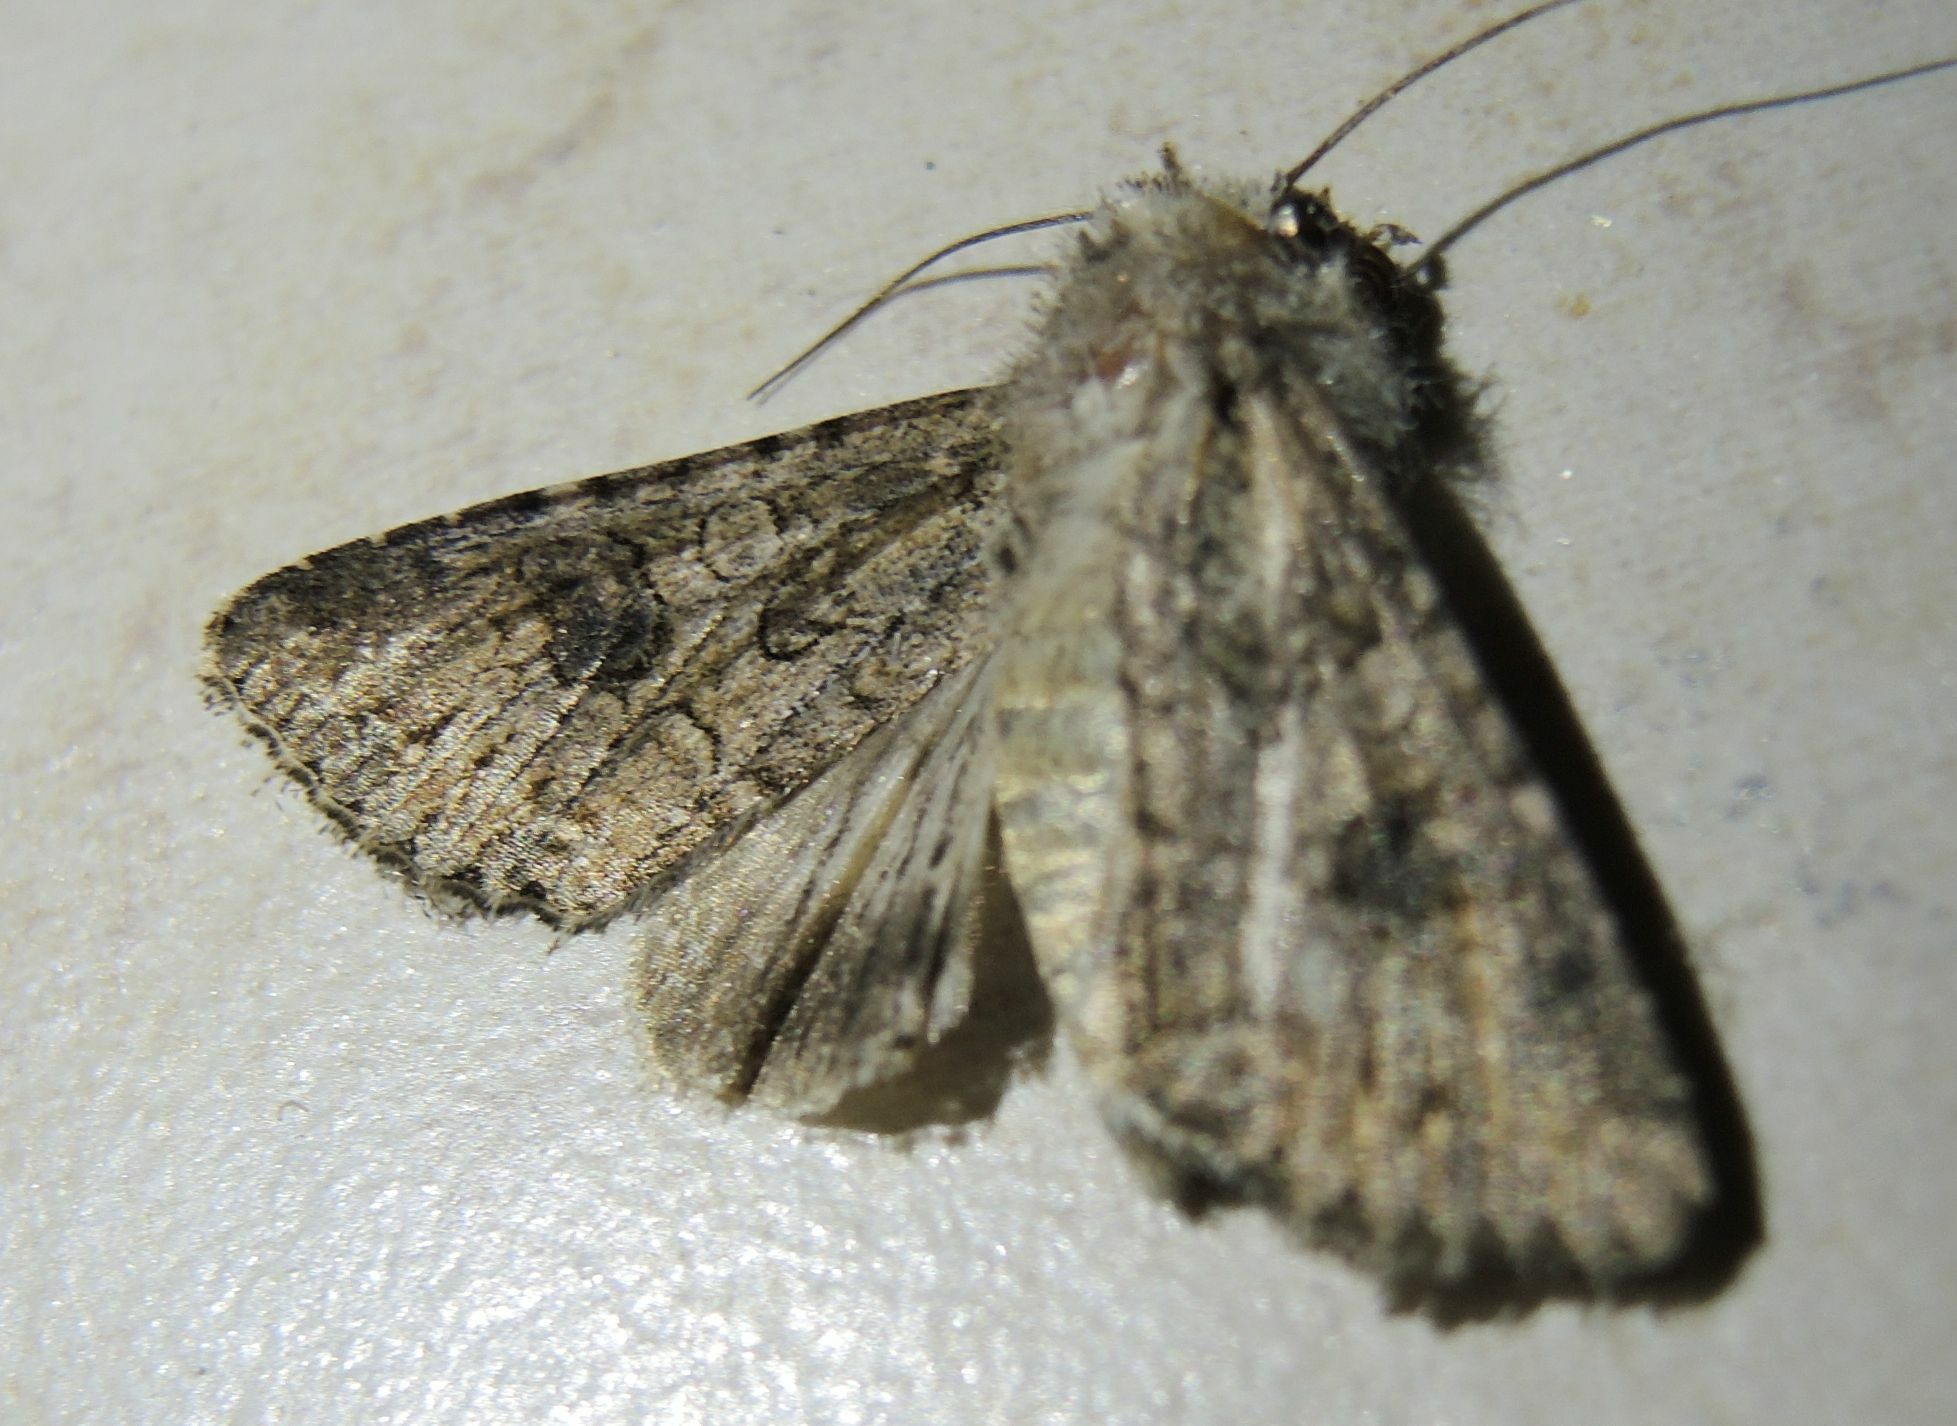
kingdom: Animalia
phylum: Arthropoda
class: Insecta
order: Lepidoptera
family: Noctuidae
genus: Anarta
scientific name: Anarta trifolii
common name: Clover cutworm moth
